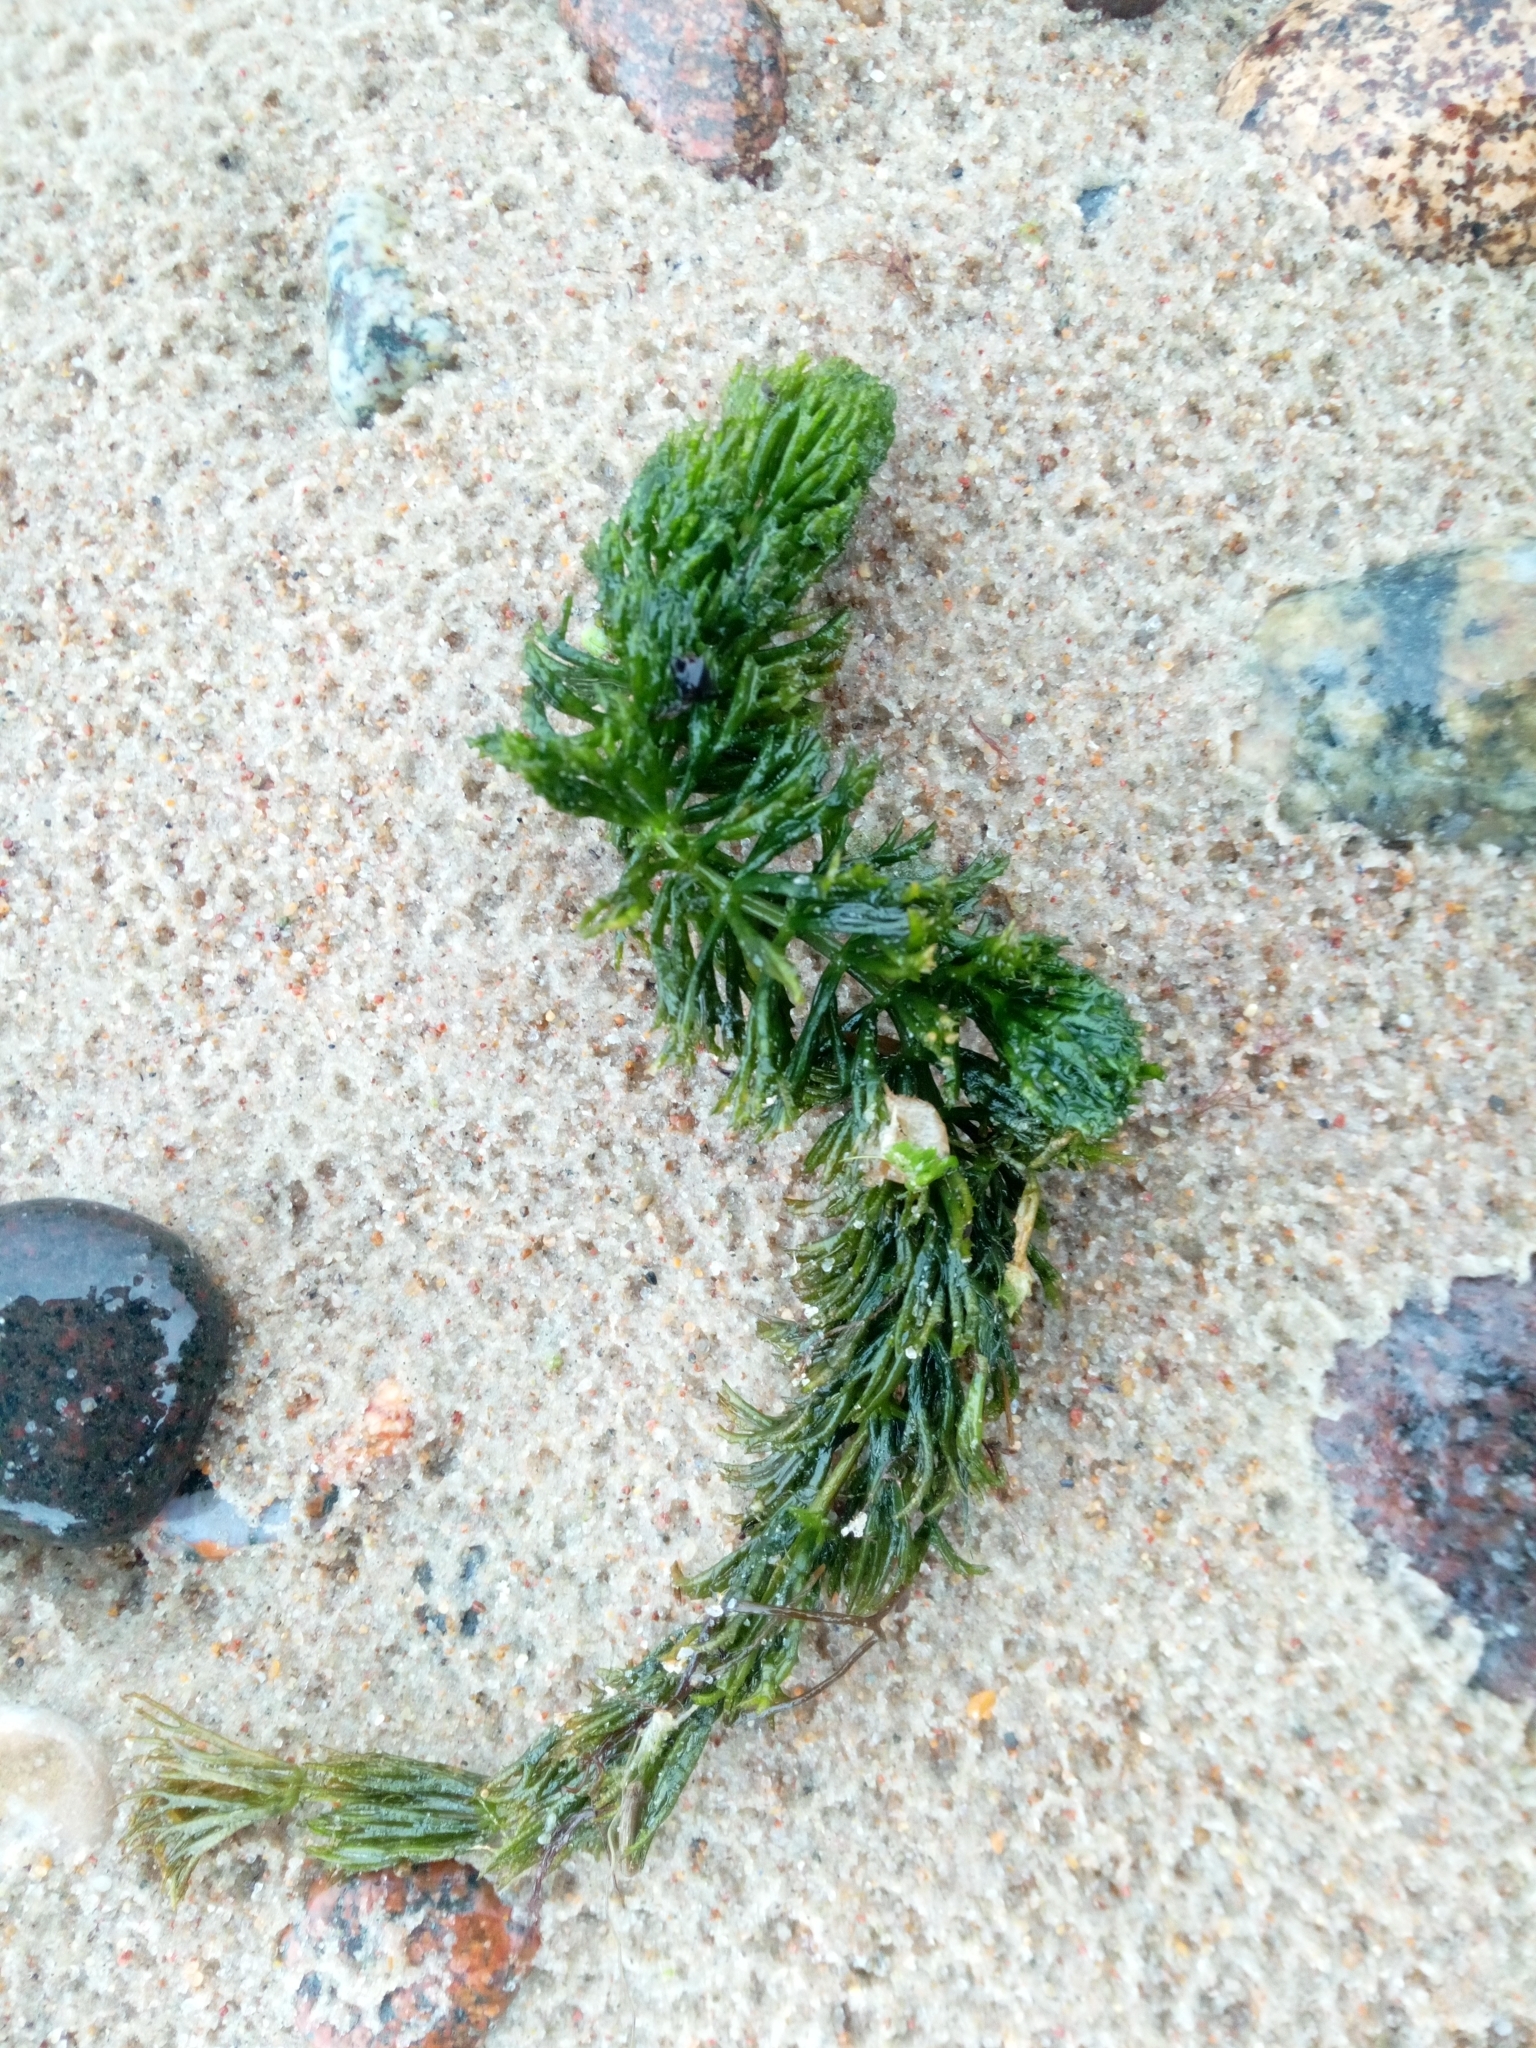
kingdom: Plantae
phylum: Tracheophyta
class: Magnoliopsida
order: Ceratophyllales
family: Ceratophyllaceae
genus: Ceratophyllum
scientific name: Ceratophyllum demersum
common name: Rigid hornwort
